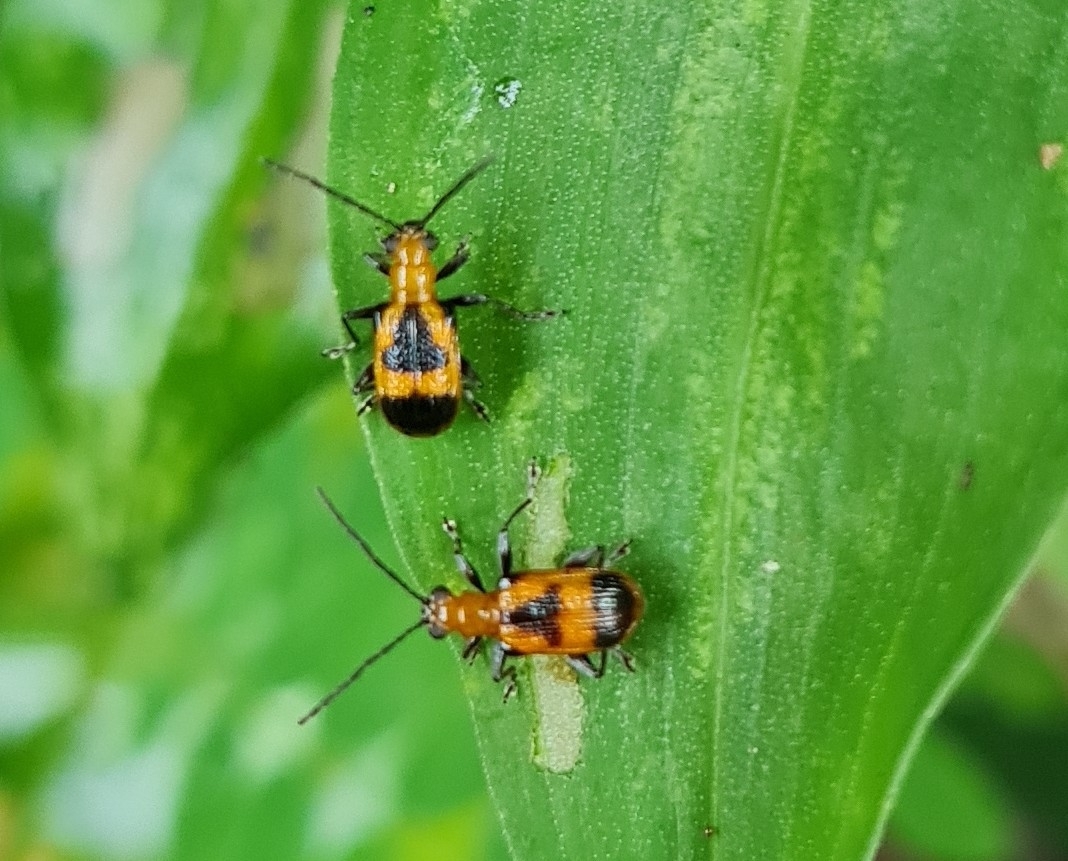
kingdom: Animalia
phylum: Arthropoda
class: Insecta
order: Coleoptera
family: Chrysomelidae
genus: Neolema
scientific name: Neolema dorsalis
